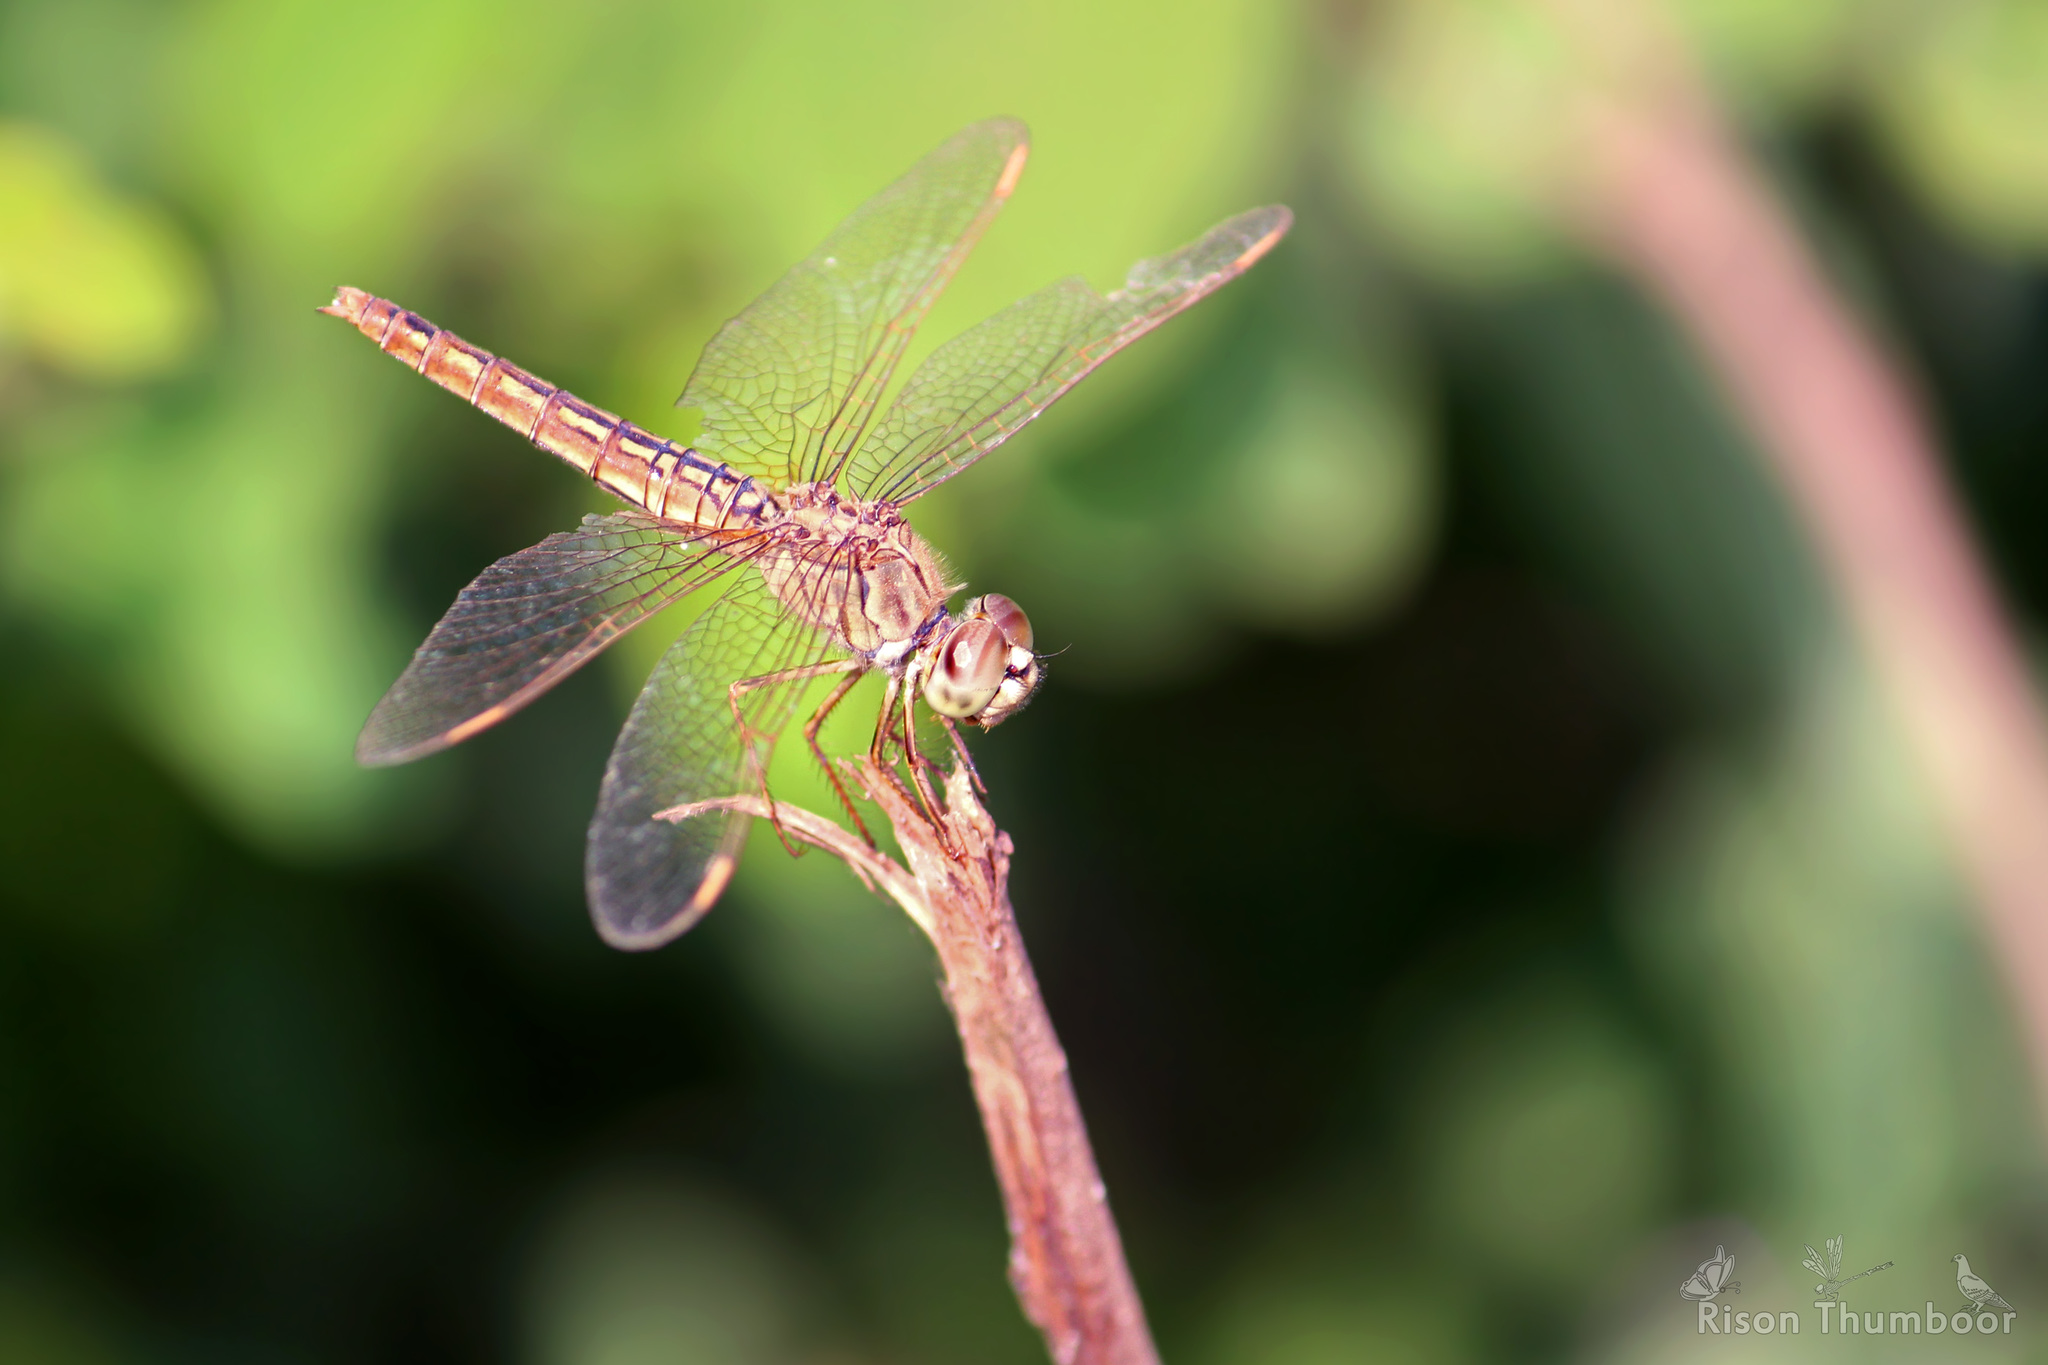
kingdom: Animalia
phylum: Arthropoda
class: Insecta
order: Odonata
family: Libellulidae
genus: Brachythemis
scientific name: Brachythemis contaminata
